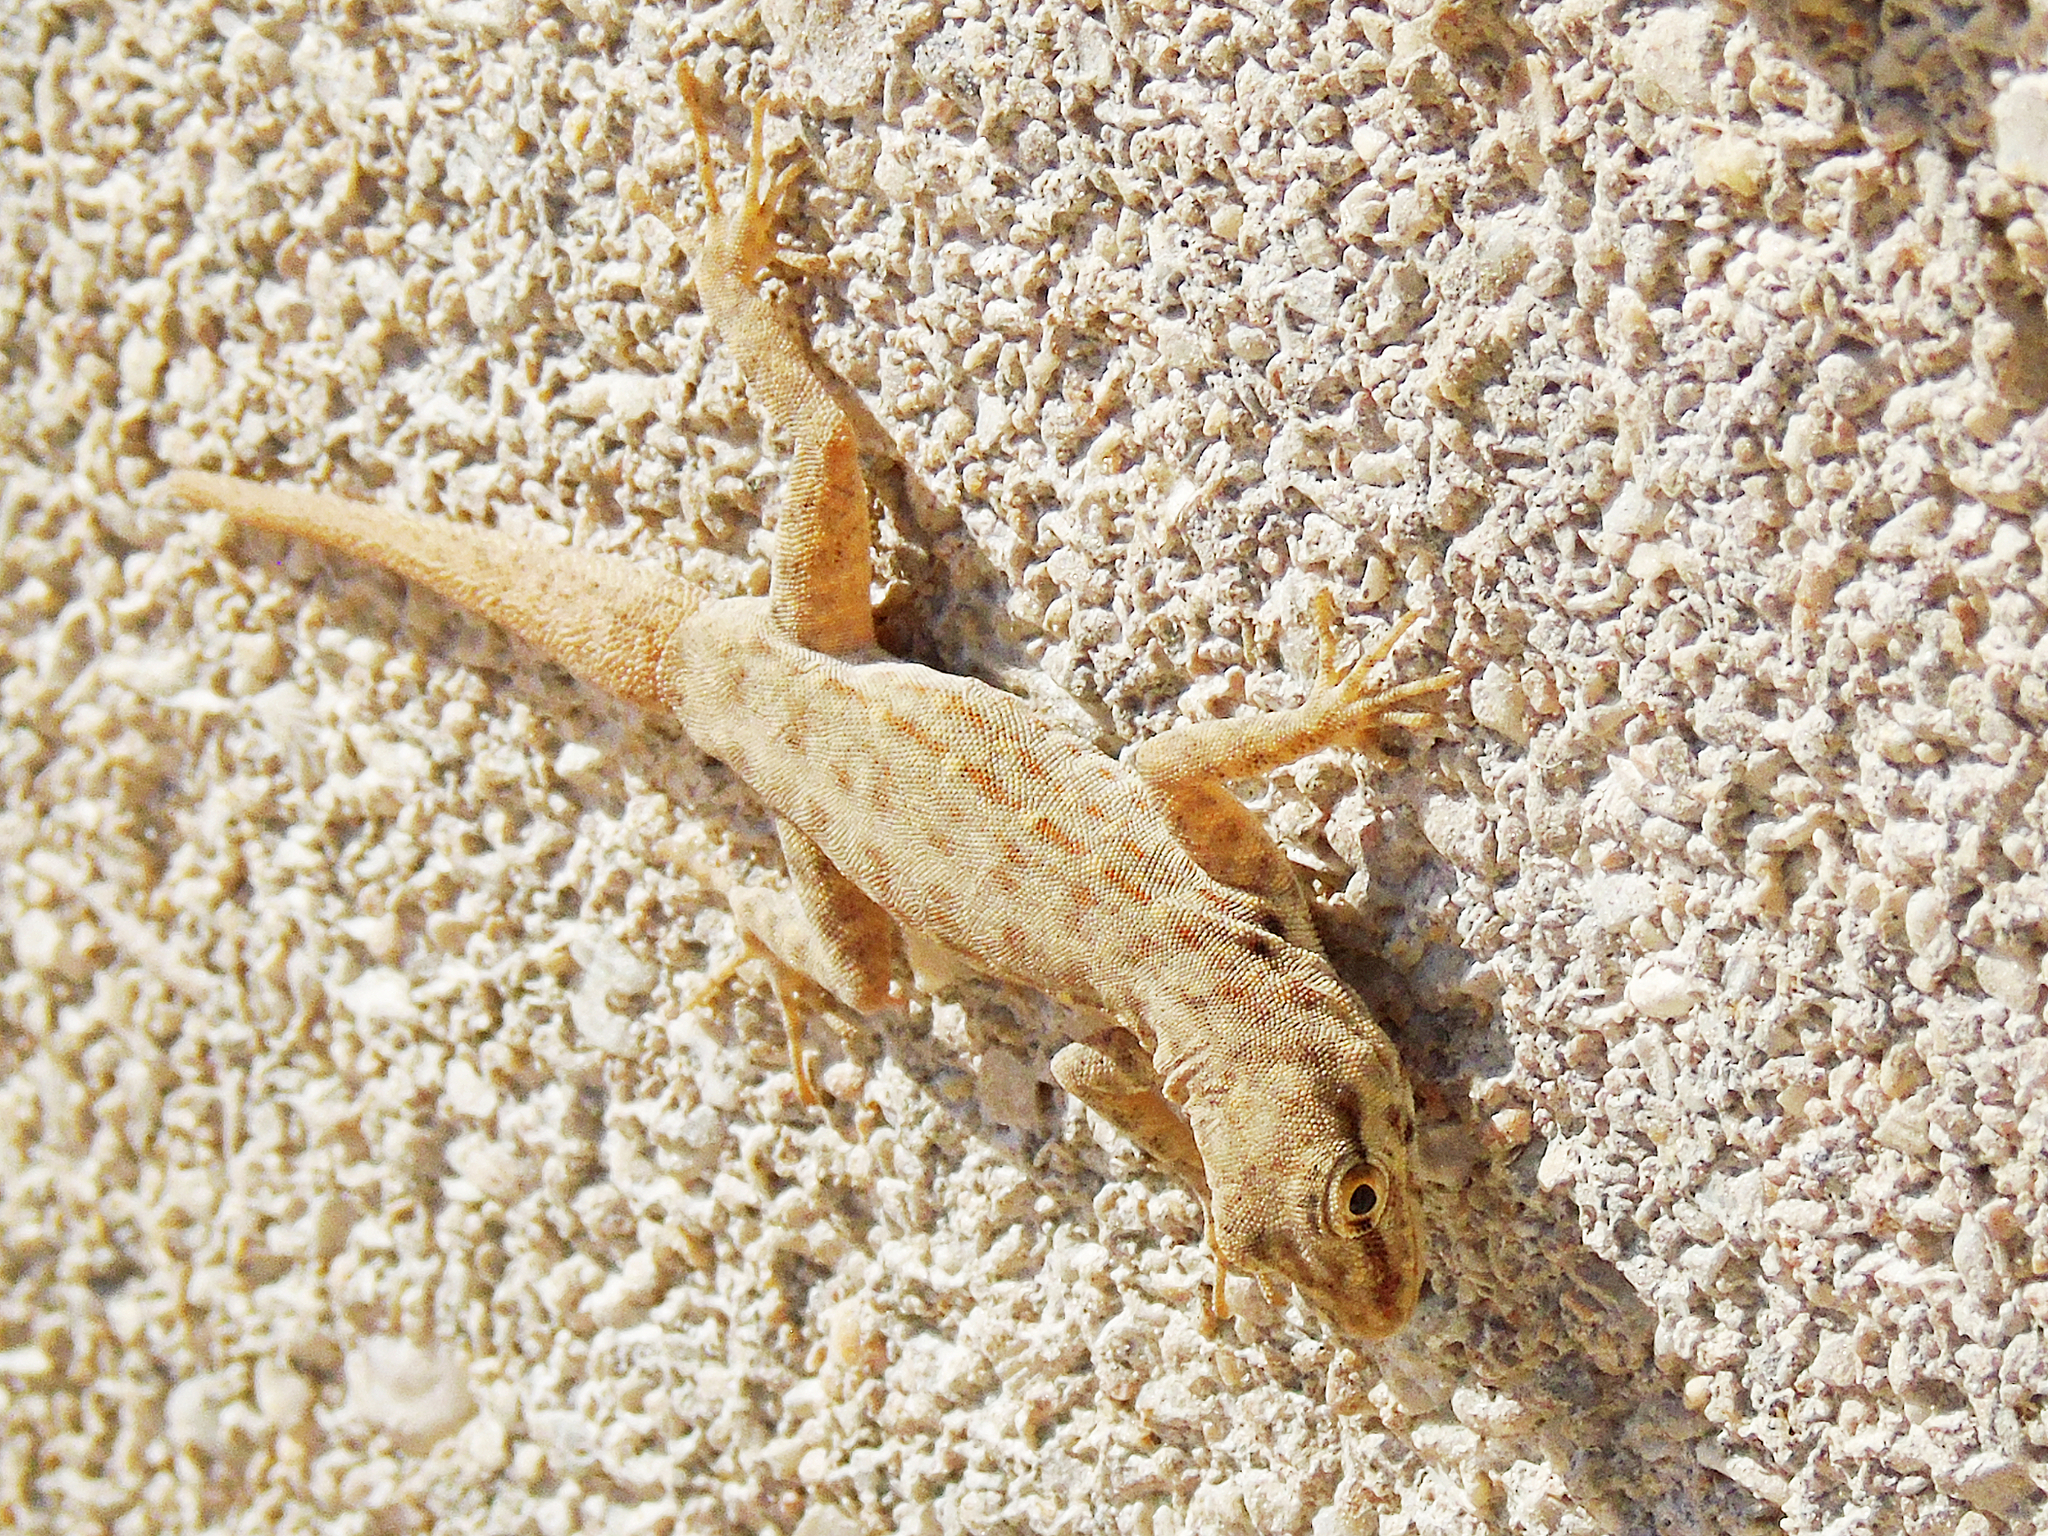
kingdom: Animalia
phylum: Chordata
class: Squamata
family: Sphaerodactylidae
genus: Pristurus
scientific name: Pristurus rupestris
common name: Blanford’s semaphore gecko
